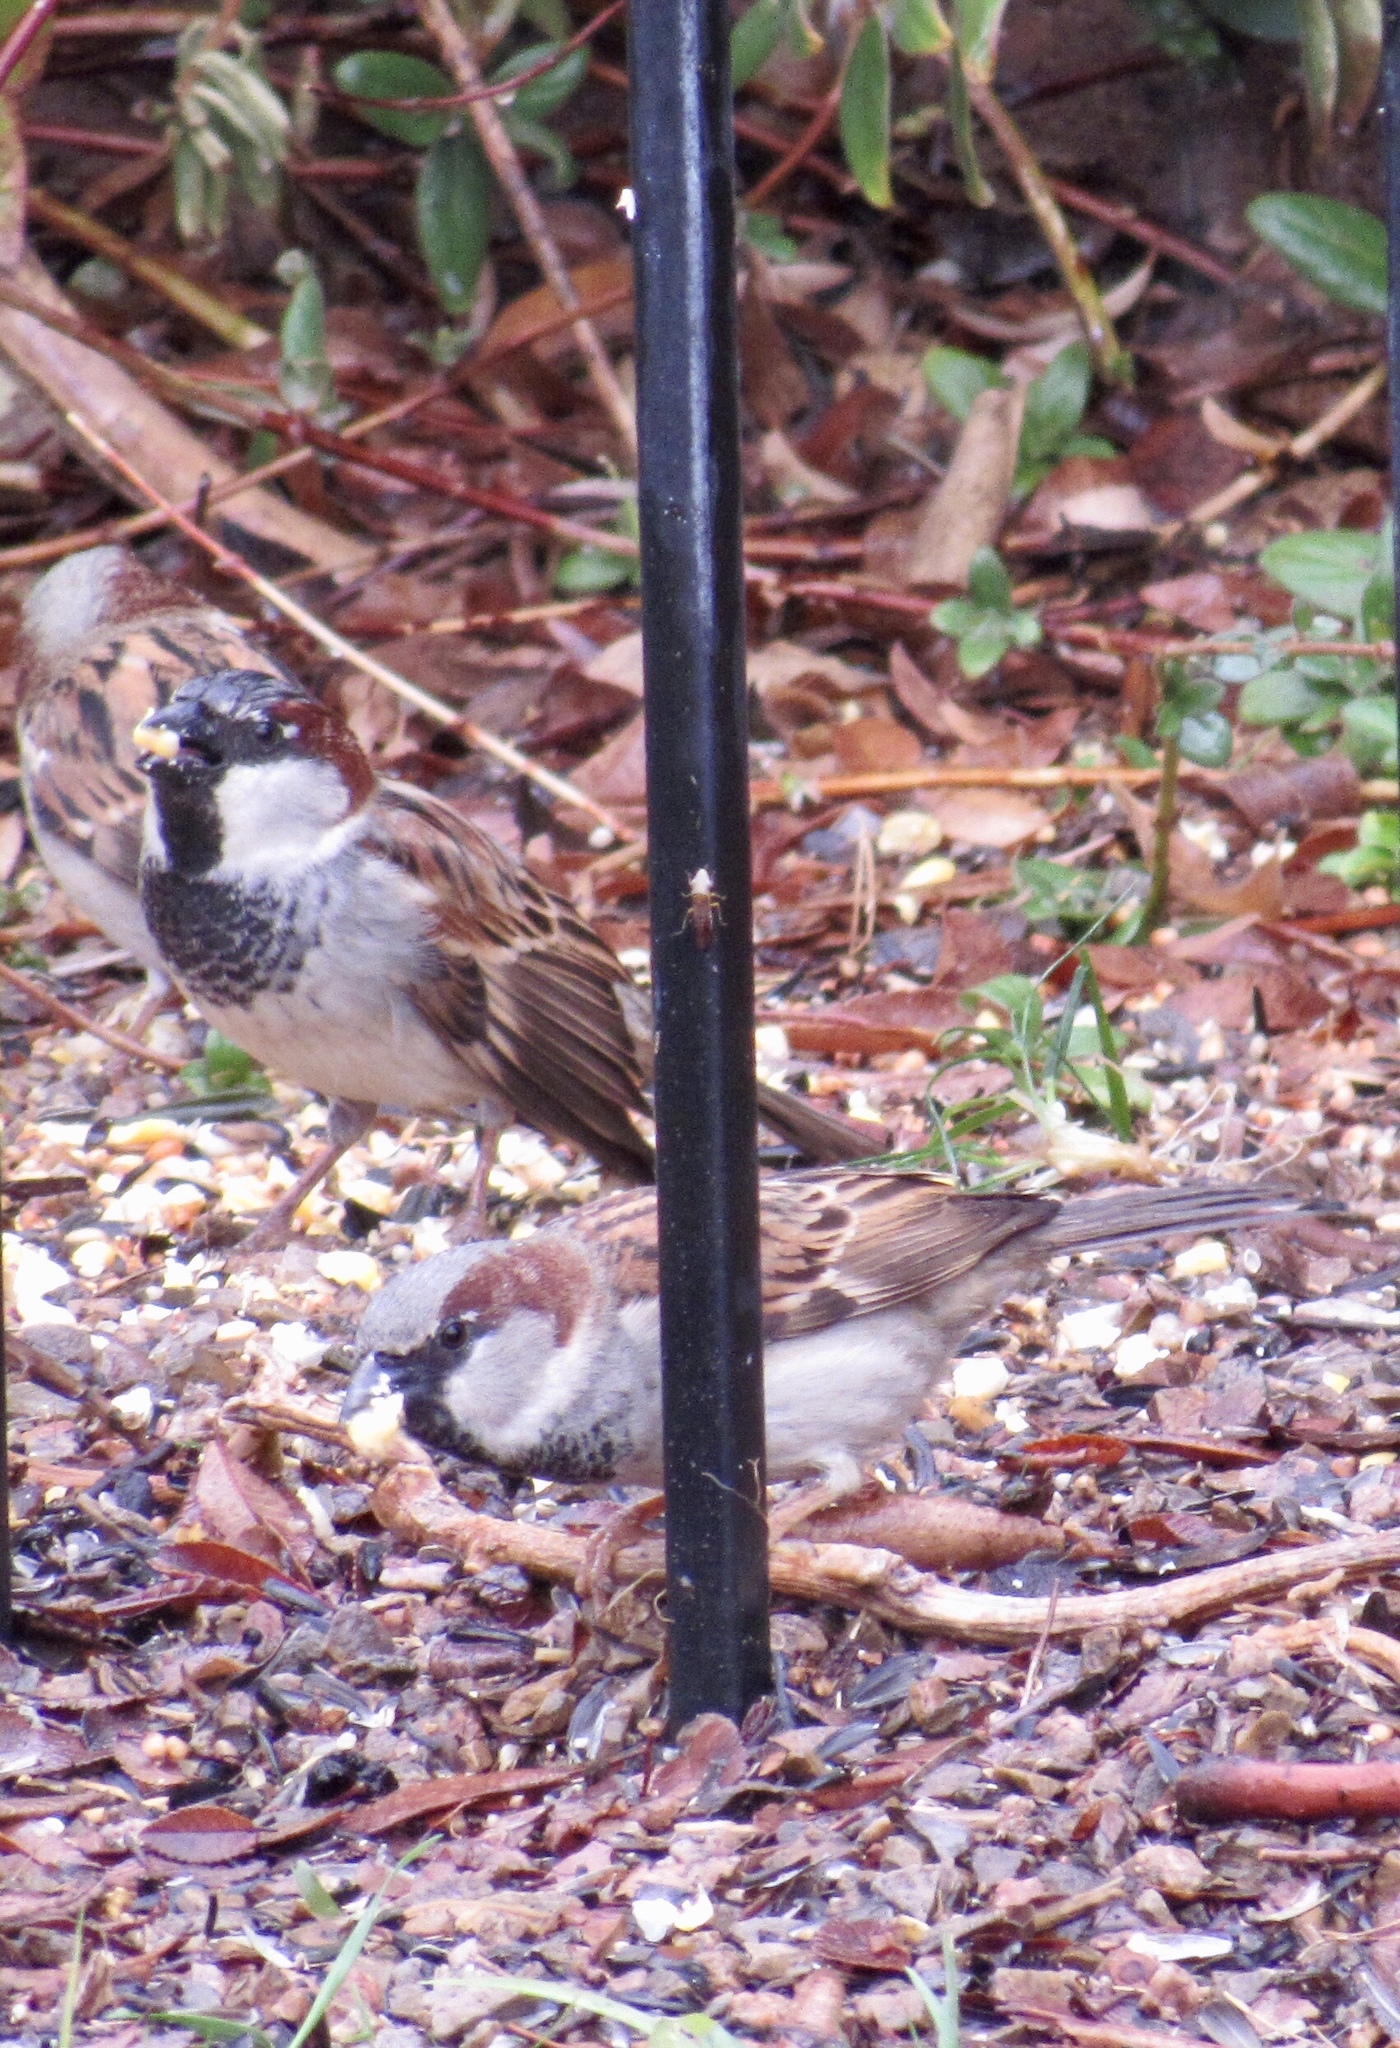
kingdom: Animalia
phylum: Chordata
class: Aves
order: Passeriformes
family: Passeridae
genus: Passer
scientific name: Passer domesticus
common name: House sparrow
